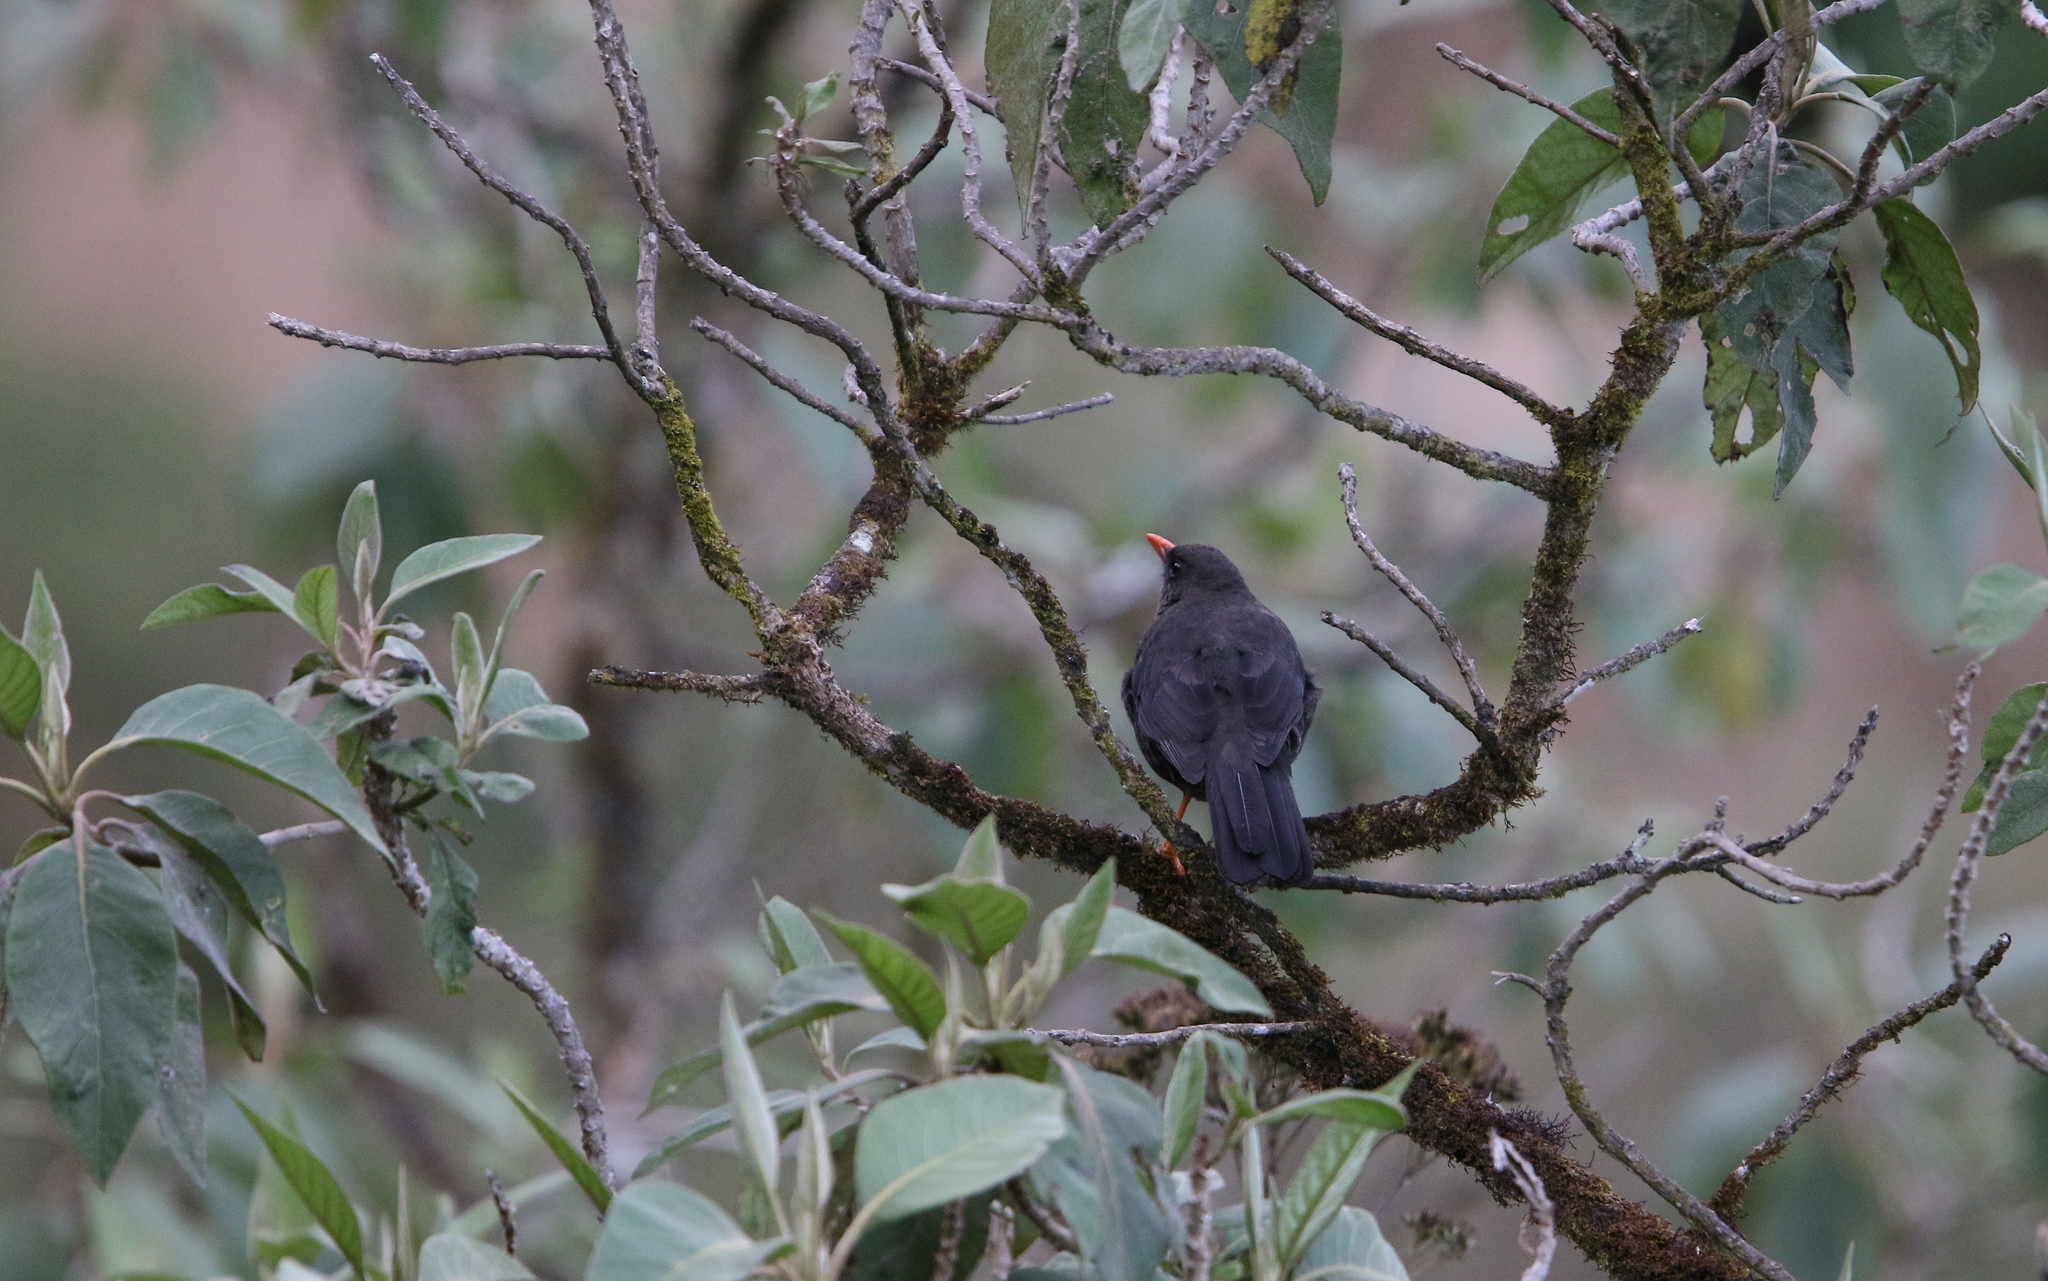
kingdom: Animalia
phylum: Chordata
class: Aves
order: Passeriformes
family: Turdidae
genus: Turdus
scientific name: Turdus fuscater
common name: Great thrush
